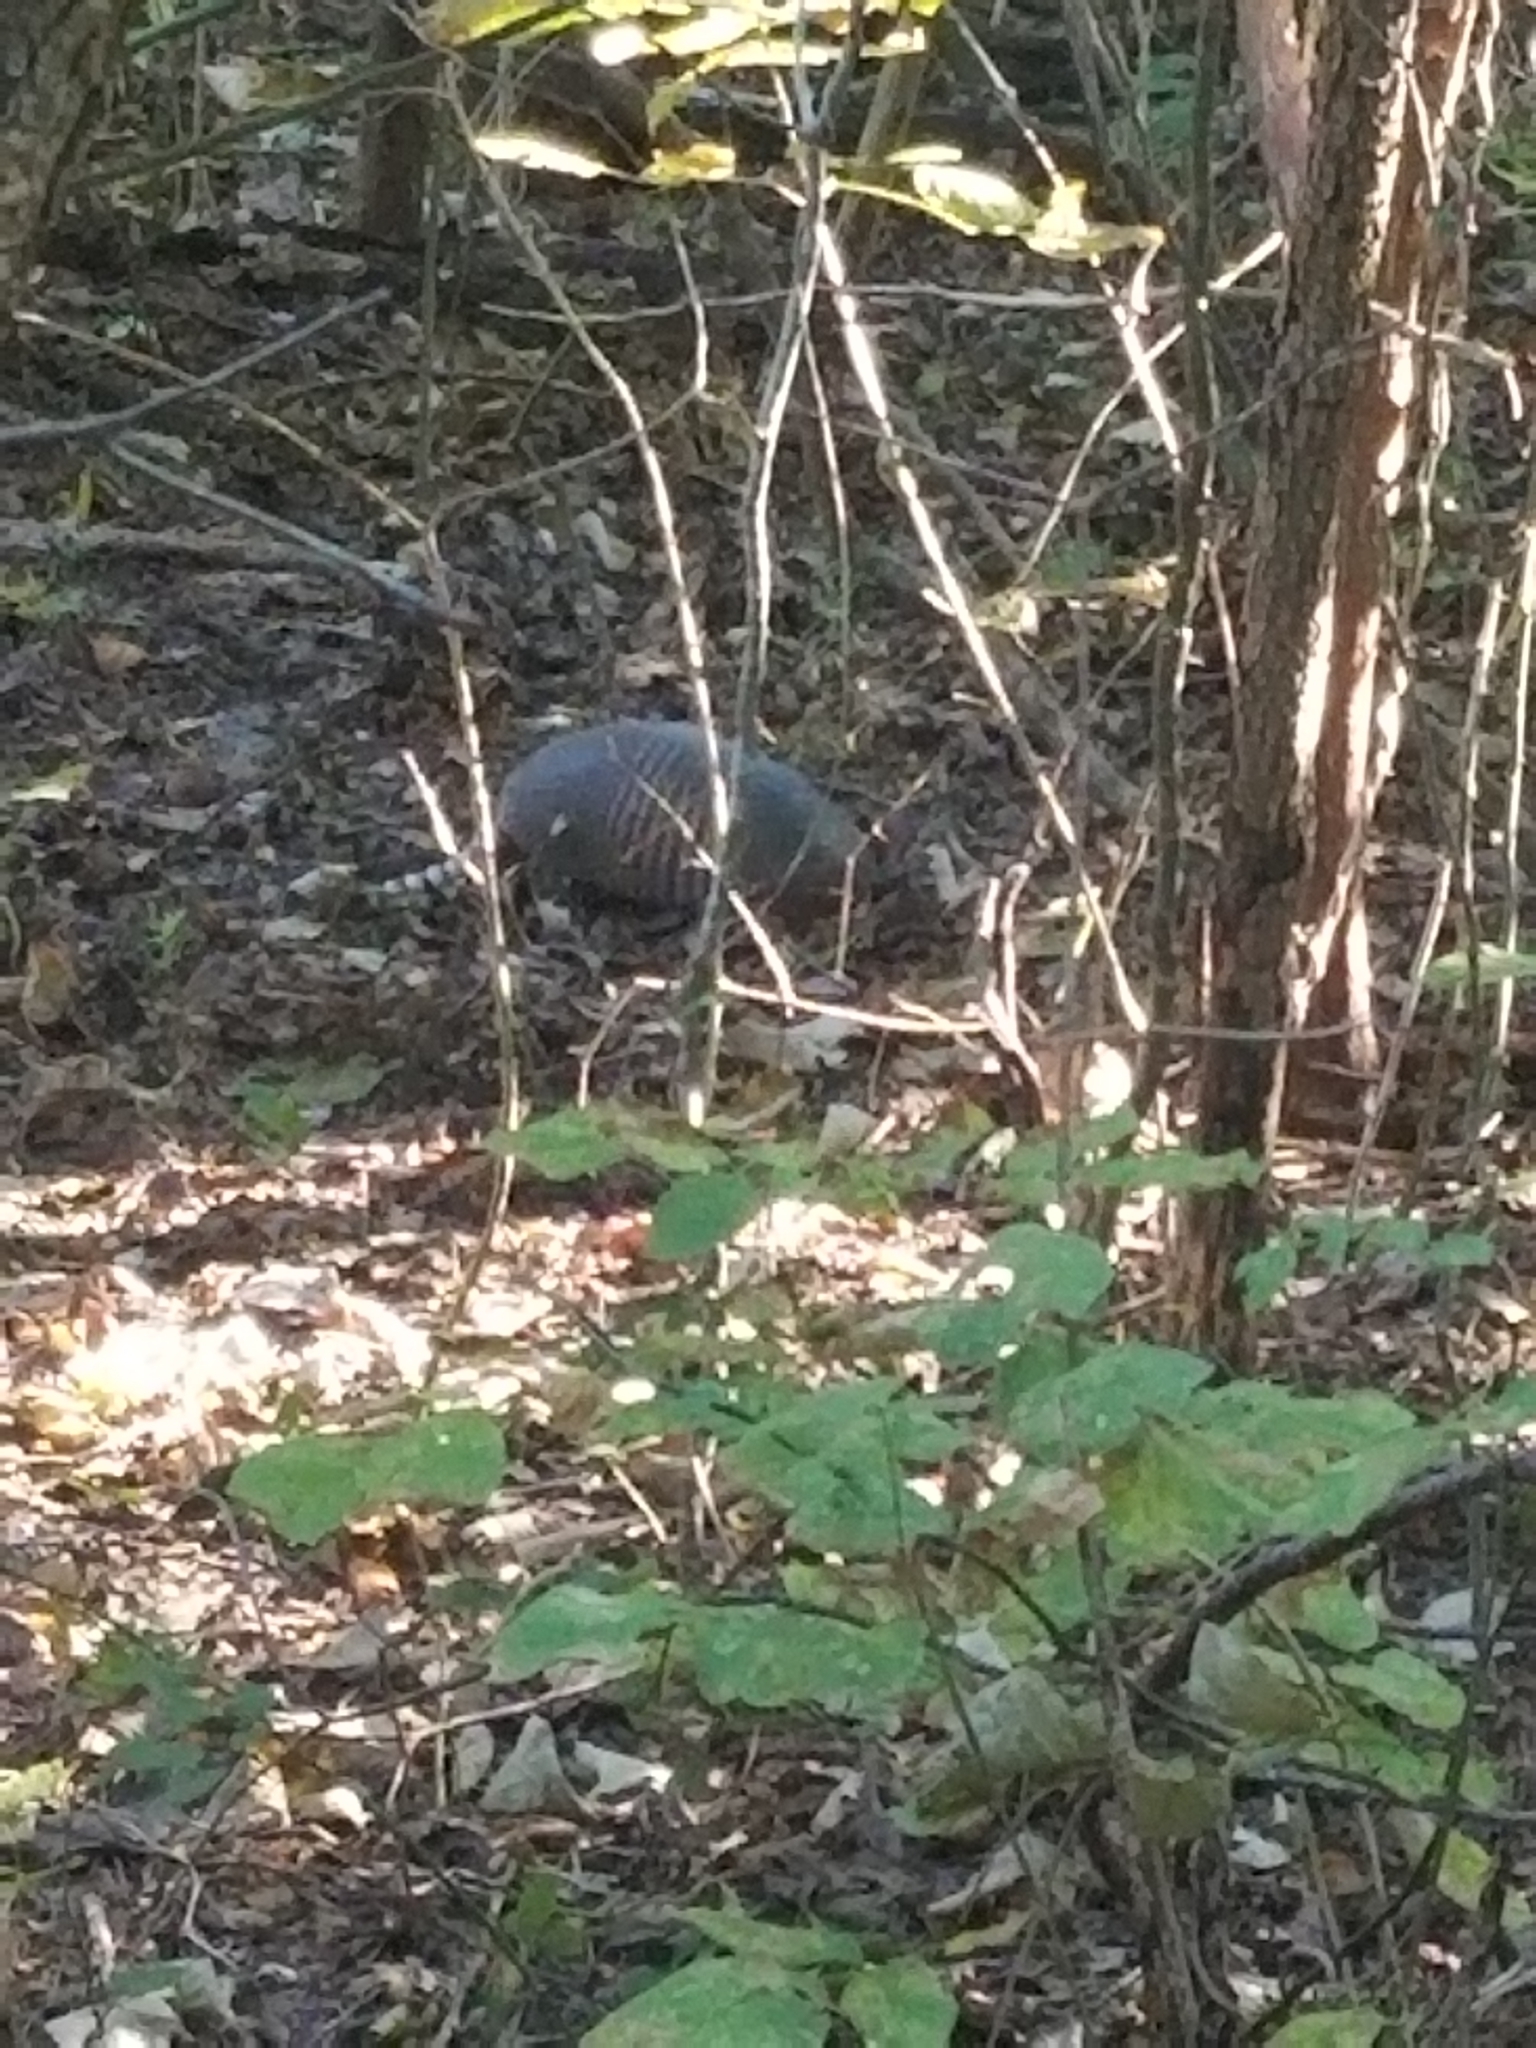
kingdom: Animalia
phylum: Chordata
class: Mammalia
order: Cingulata
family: Dasypodidae
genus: Dasypus
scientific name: Dasypus novemcinctus
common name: Nine-banded armadillo
